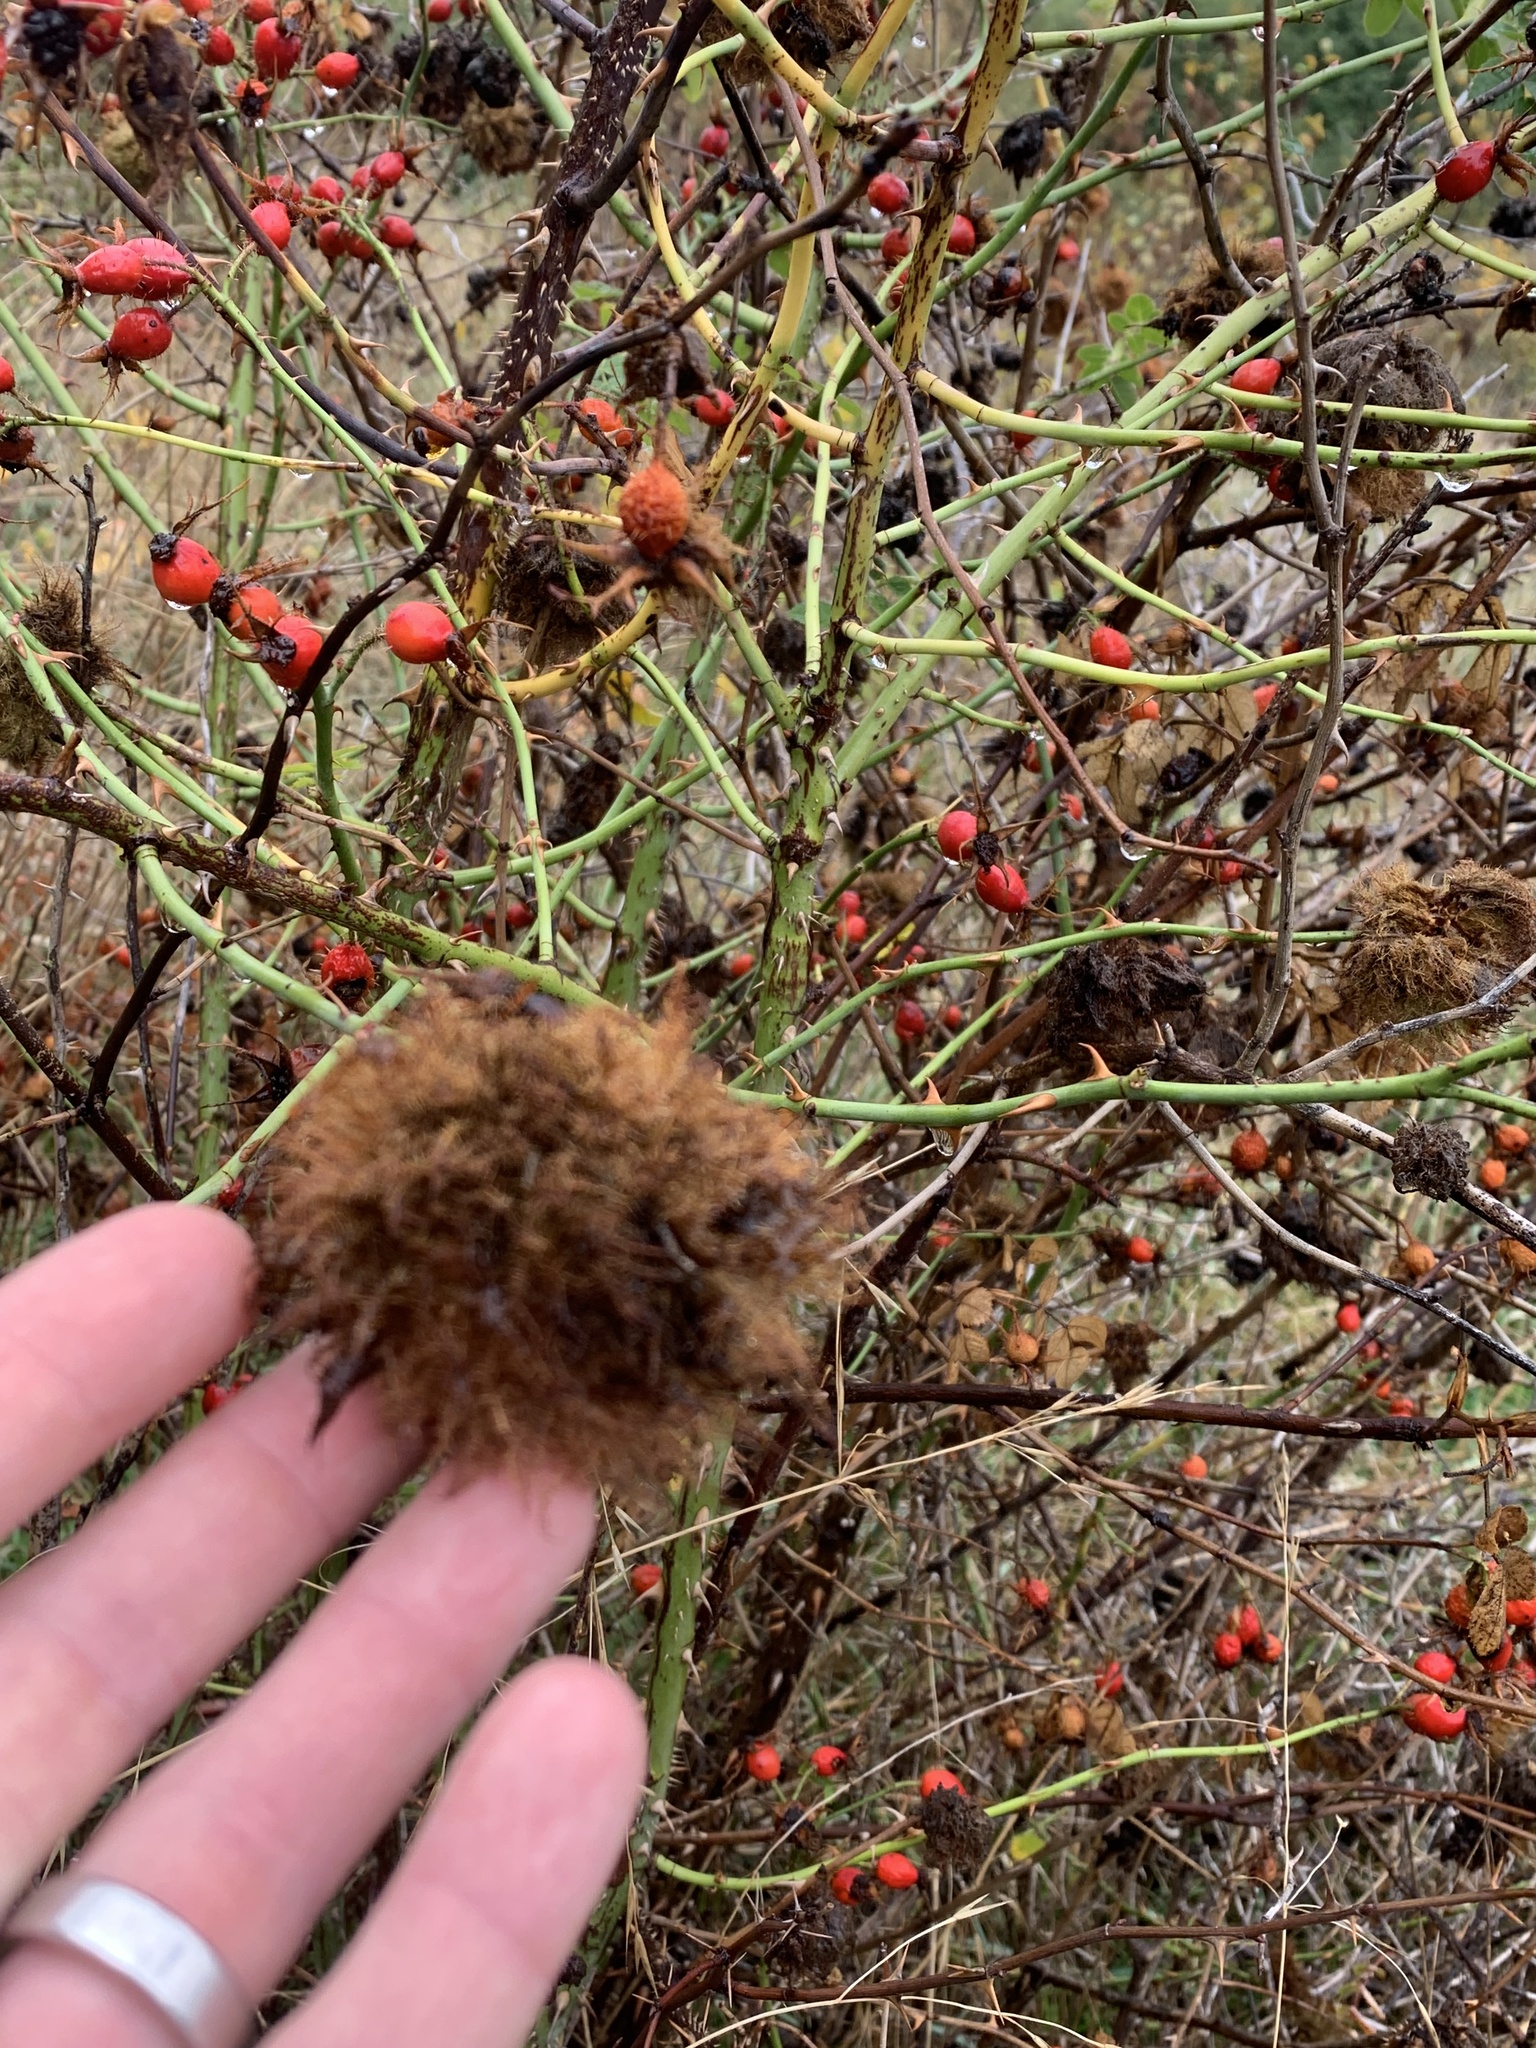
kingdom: Animalia
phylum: Arthropoda
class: Insecta
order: Hymenoptera
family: Cynipidae
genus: Diplolepis
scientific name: Diplolepis rosae
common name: Bedeguar gall
